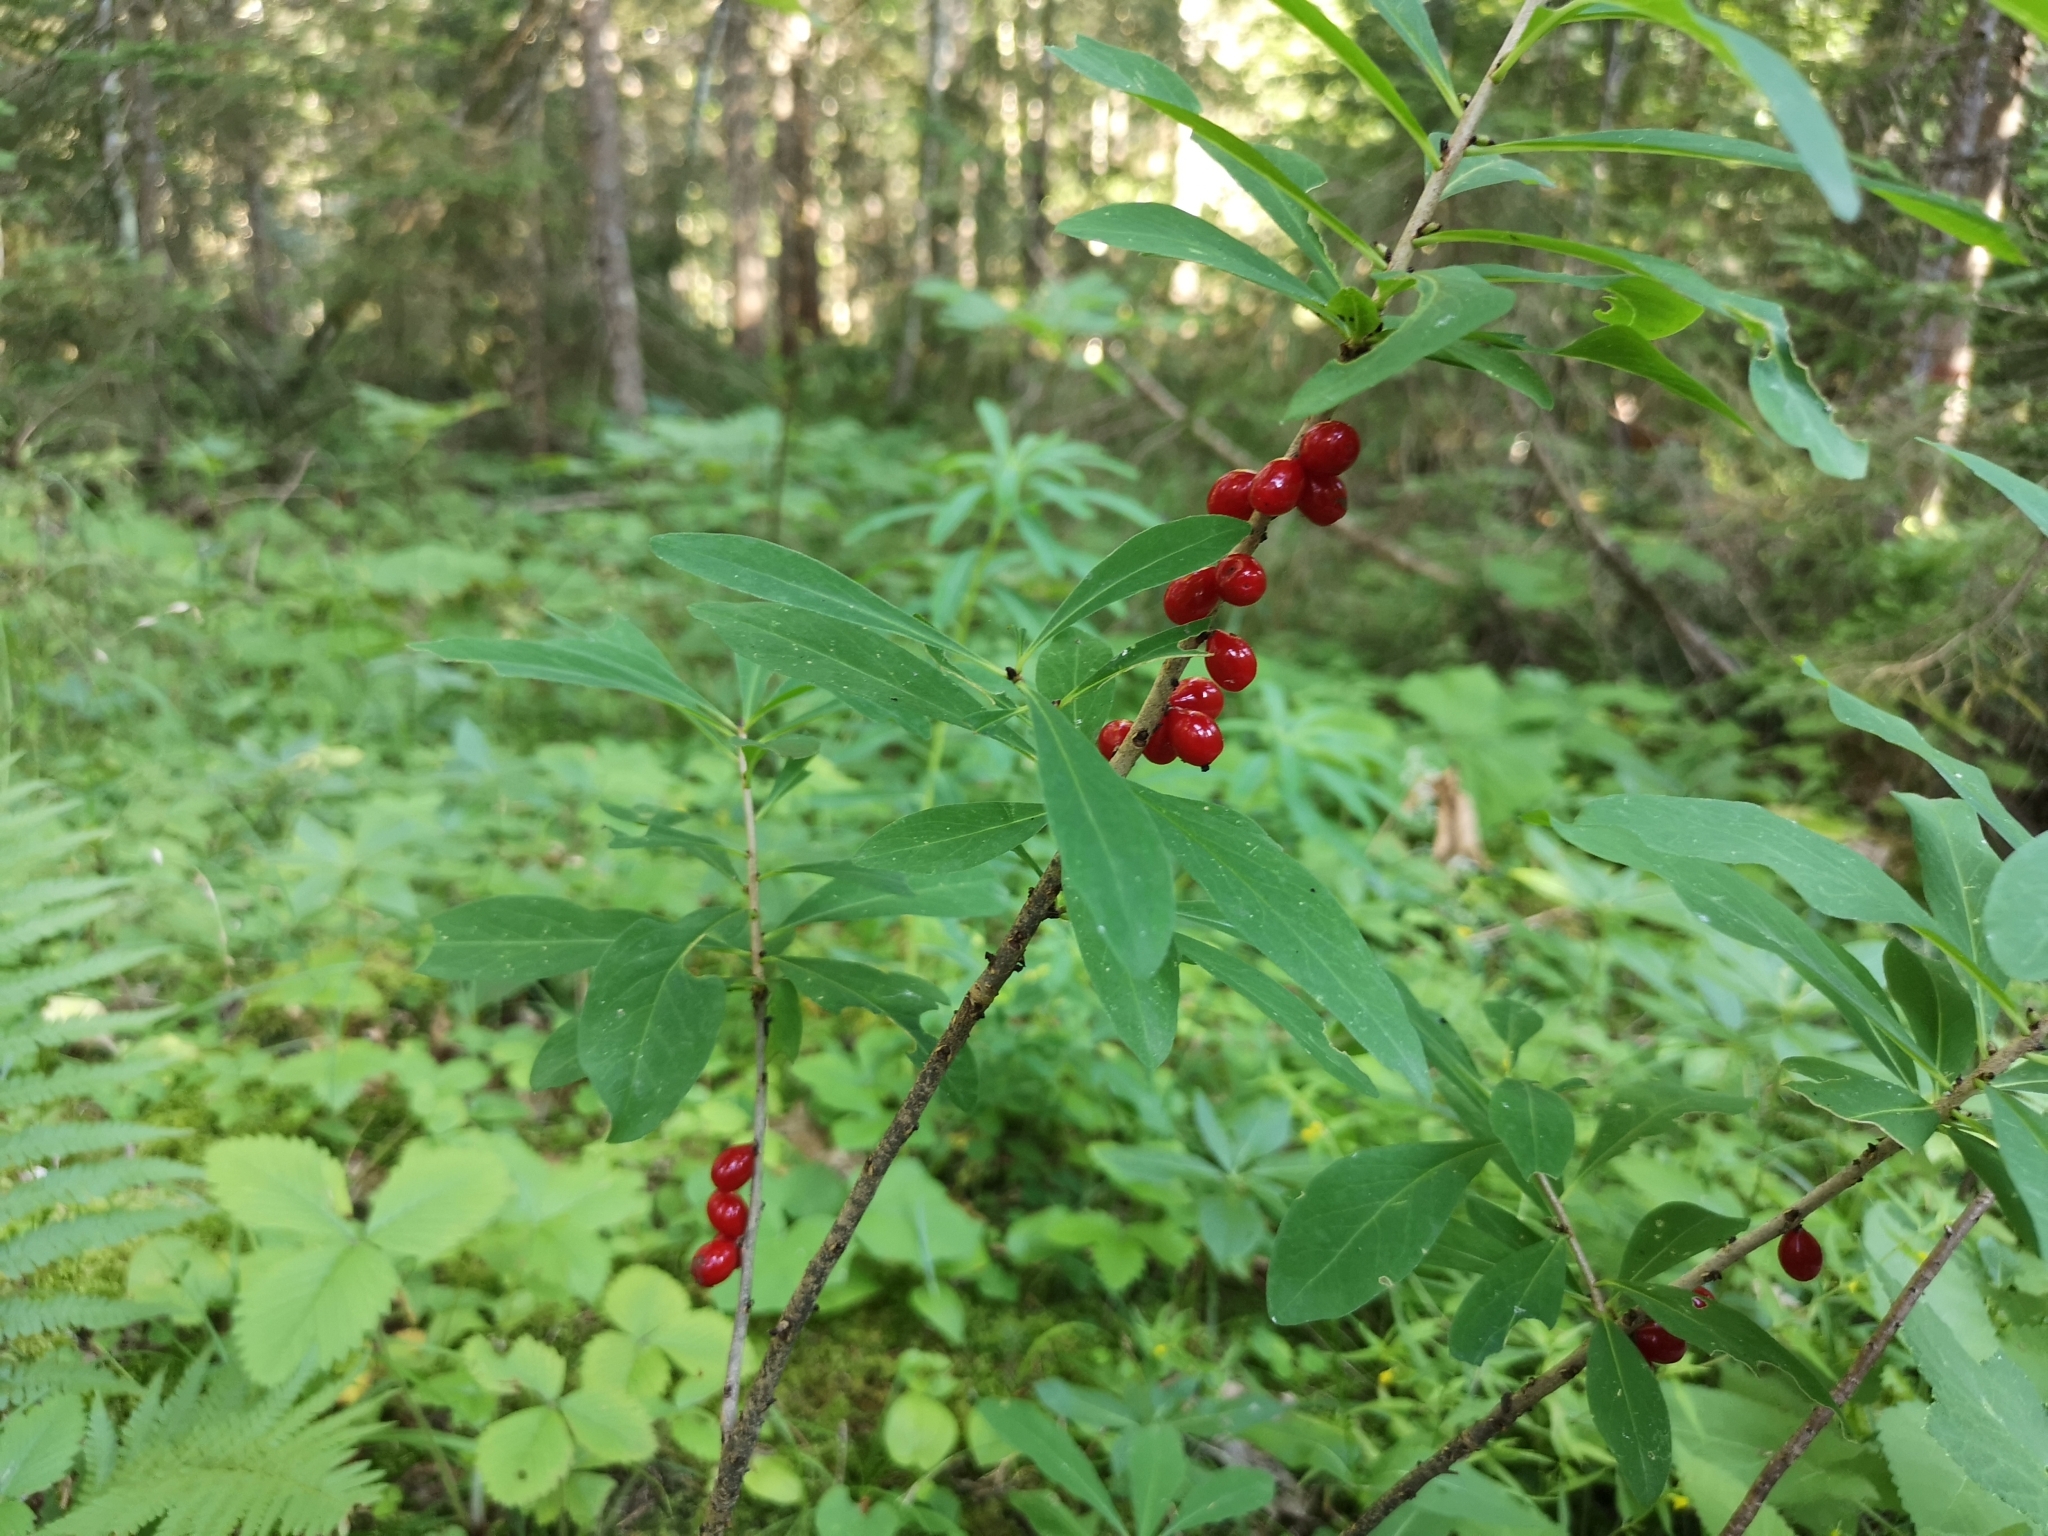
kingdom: Plantae
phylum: Tracheophyta
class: Magnoliopsida
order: Malvales
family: Thymelaeaceae
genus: Daphne
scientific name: Daphne mezereum
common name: Mezereon
